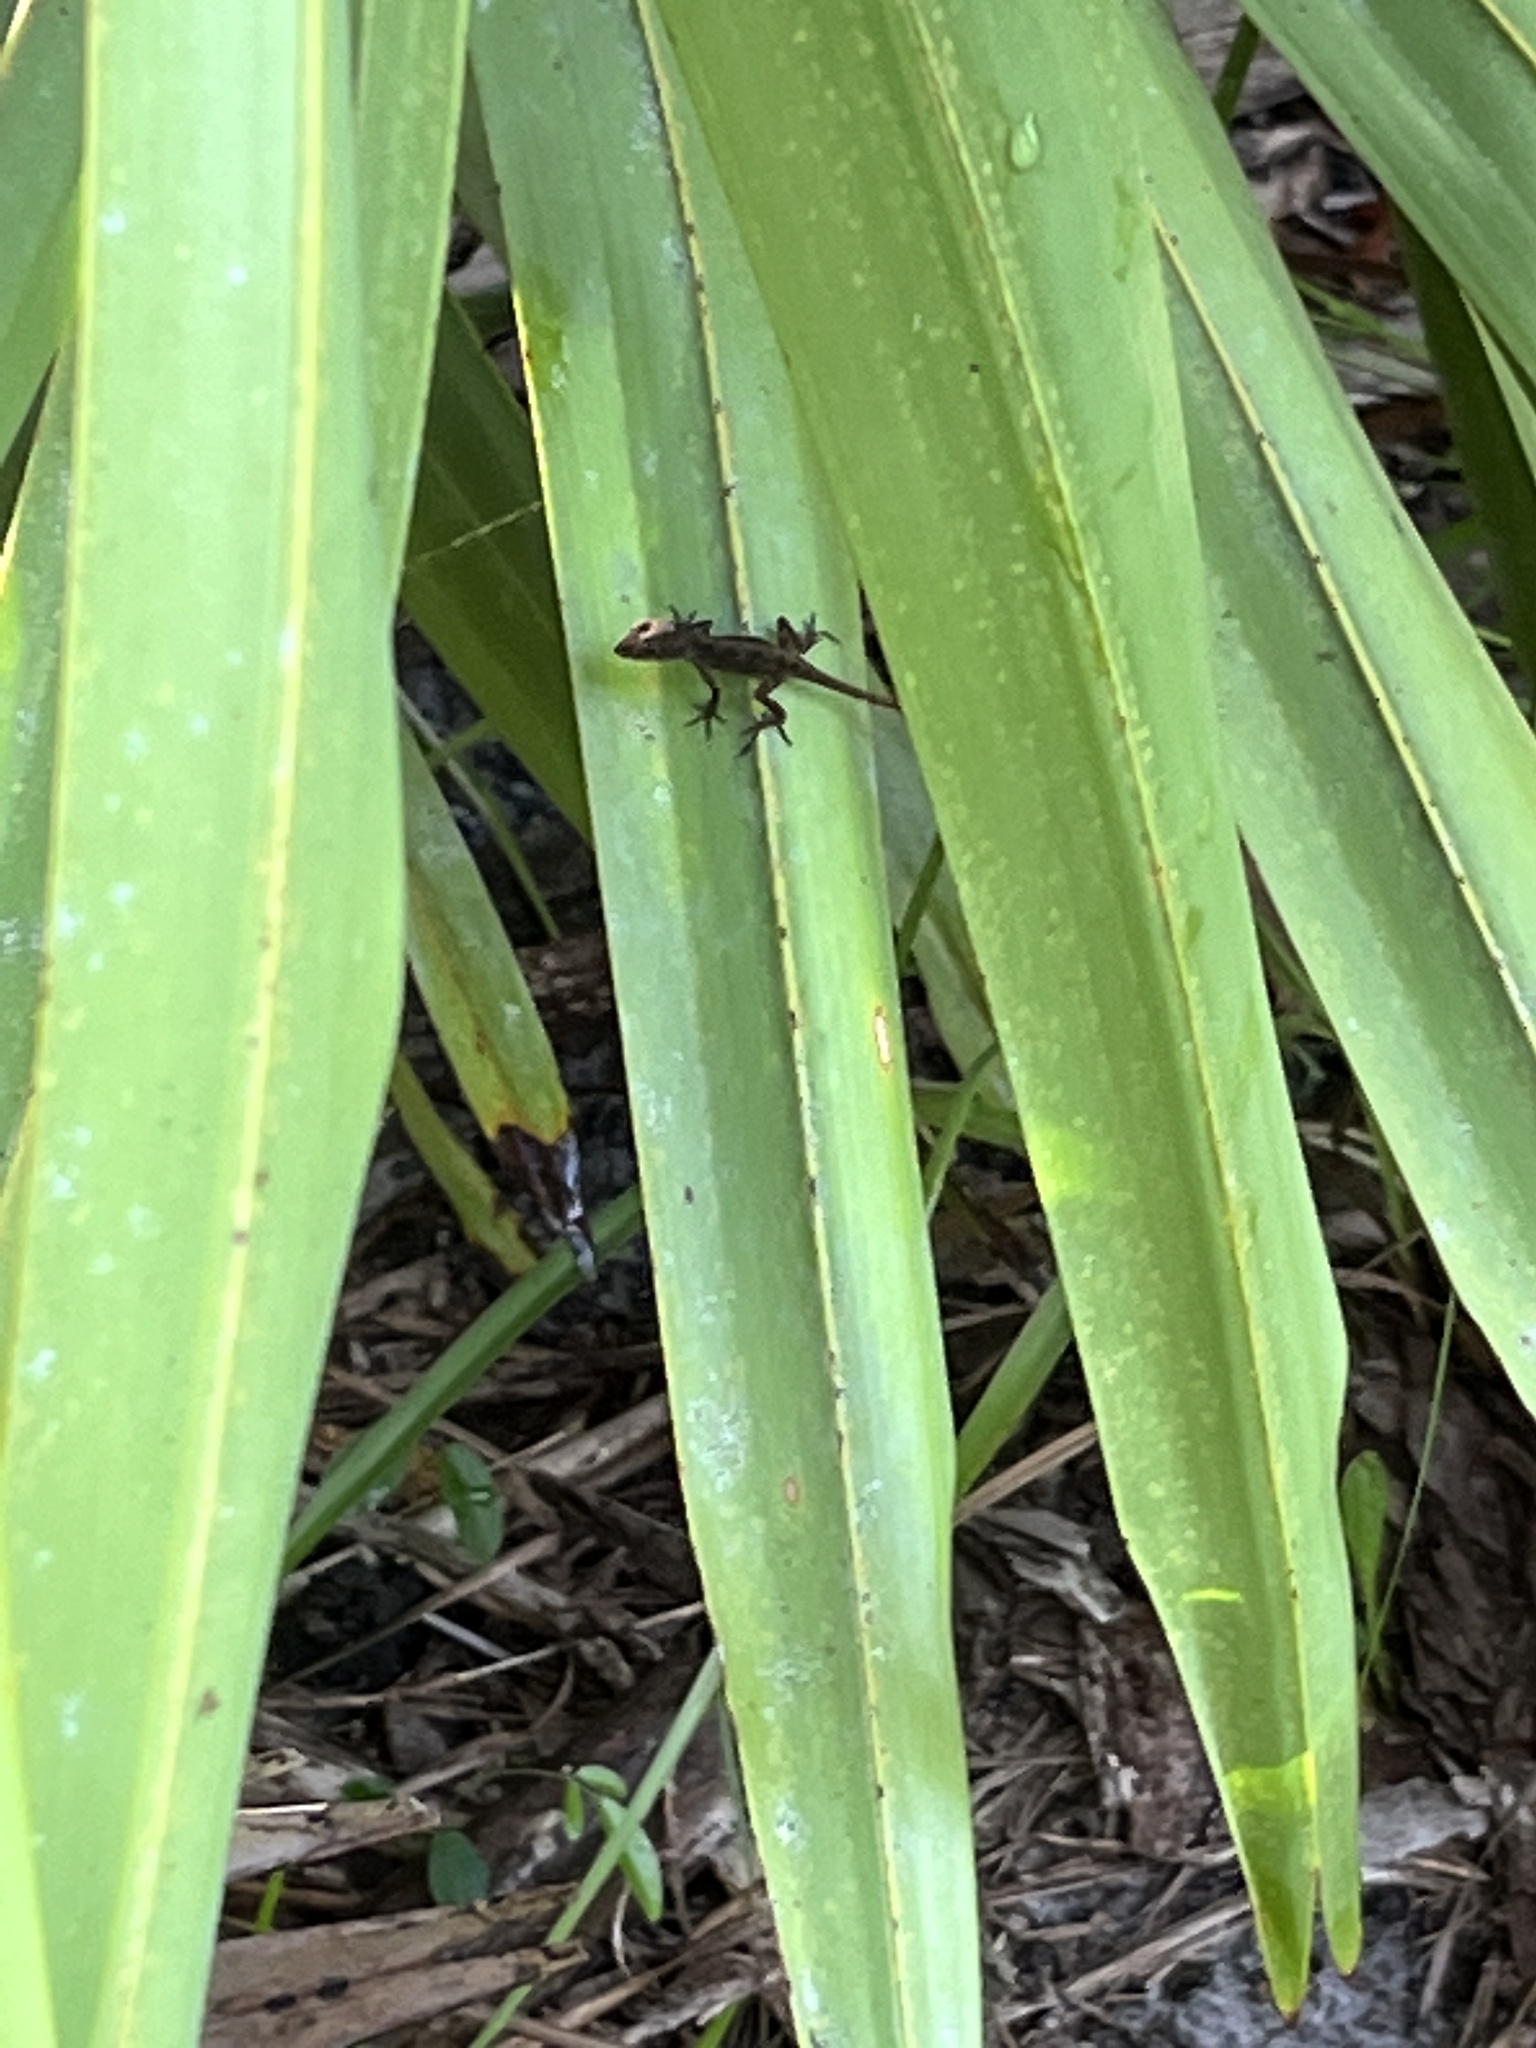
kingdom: Animalia
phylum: Chordata
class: Squamata
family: Dactyloidae
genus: Anolis
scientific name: Anolis sagrei
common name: Brown anole
